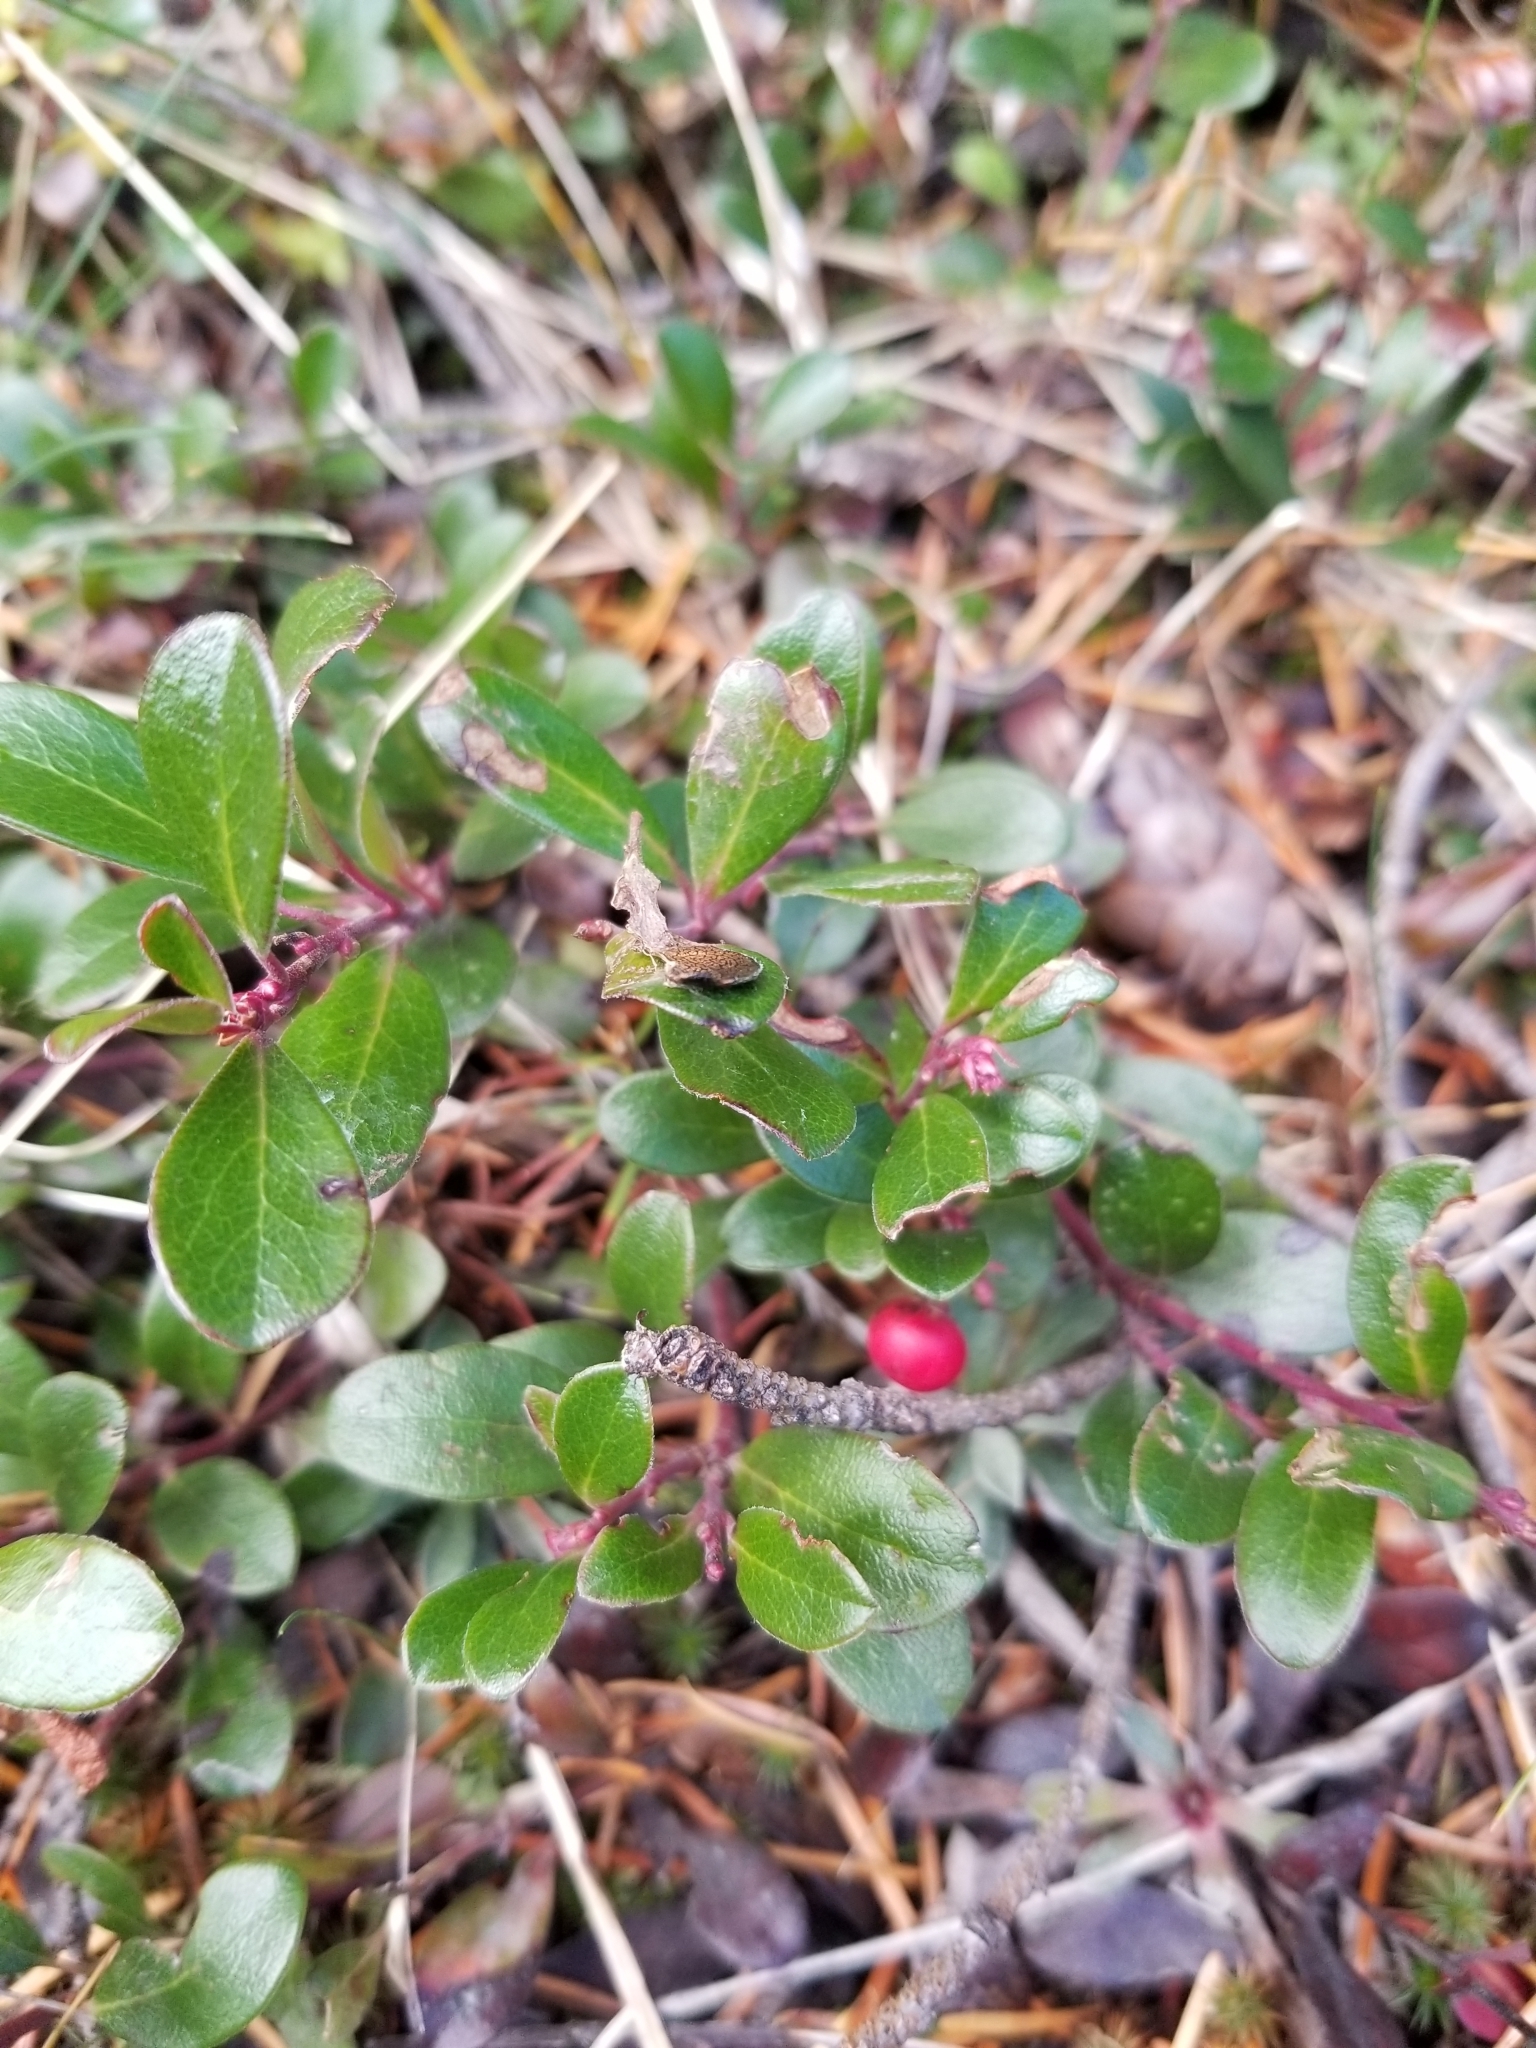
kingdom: Plantae
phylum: Tracheophyta
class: Magnoliopsida
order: Ericales
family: Ericaceae
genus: Arctostaphylos
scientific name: Arctostaphylos uva-ursi
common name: Bearberry
